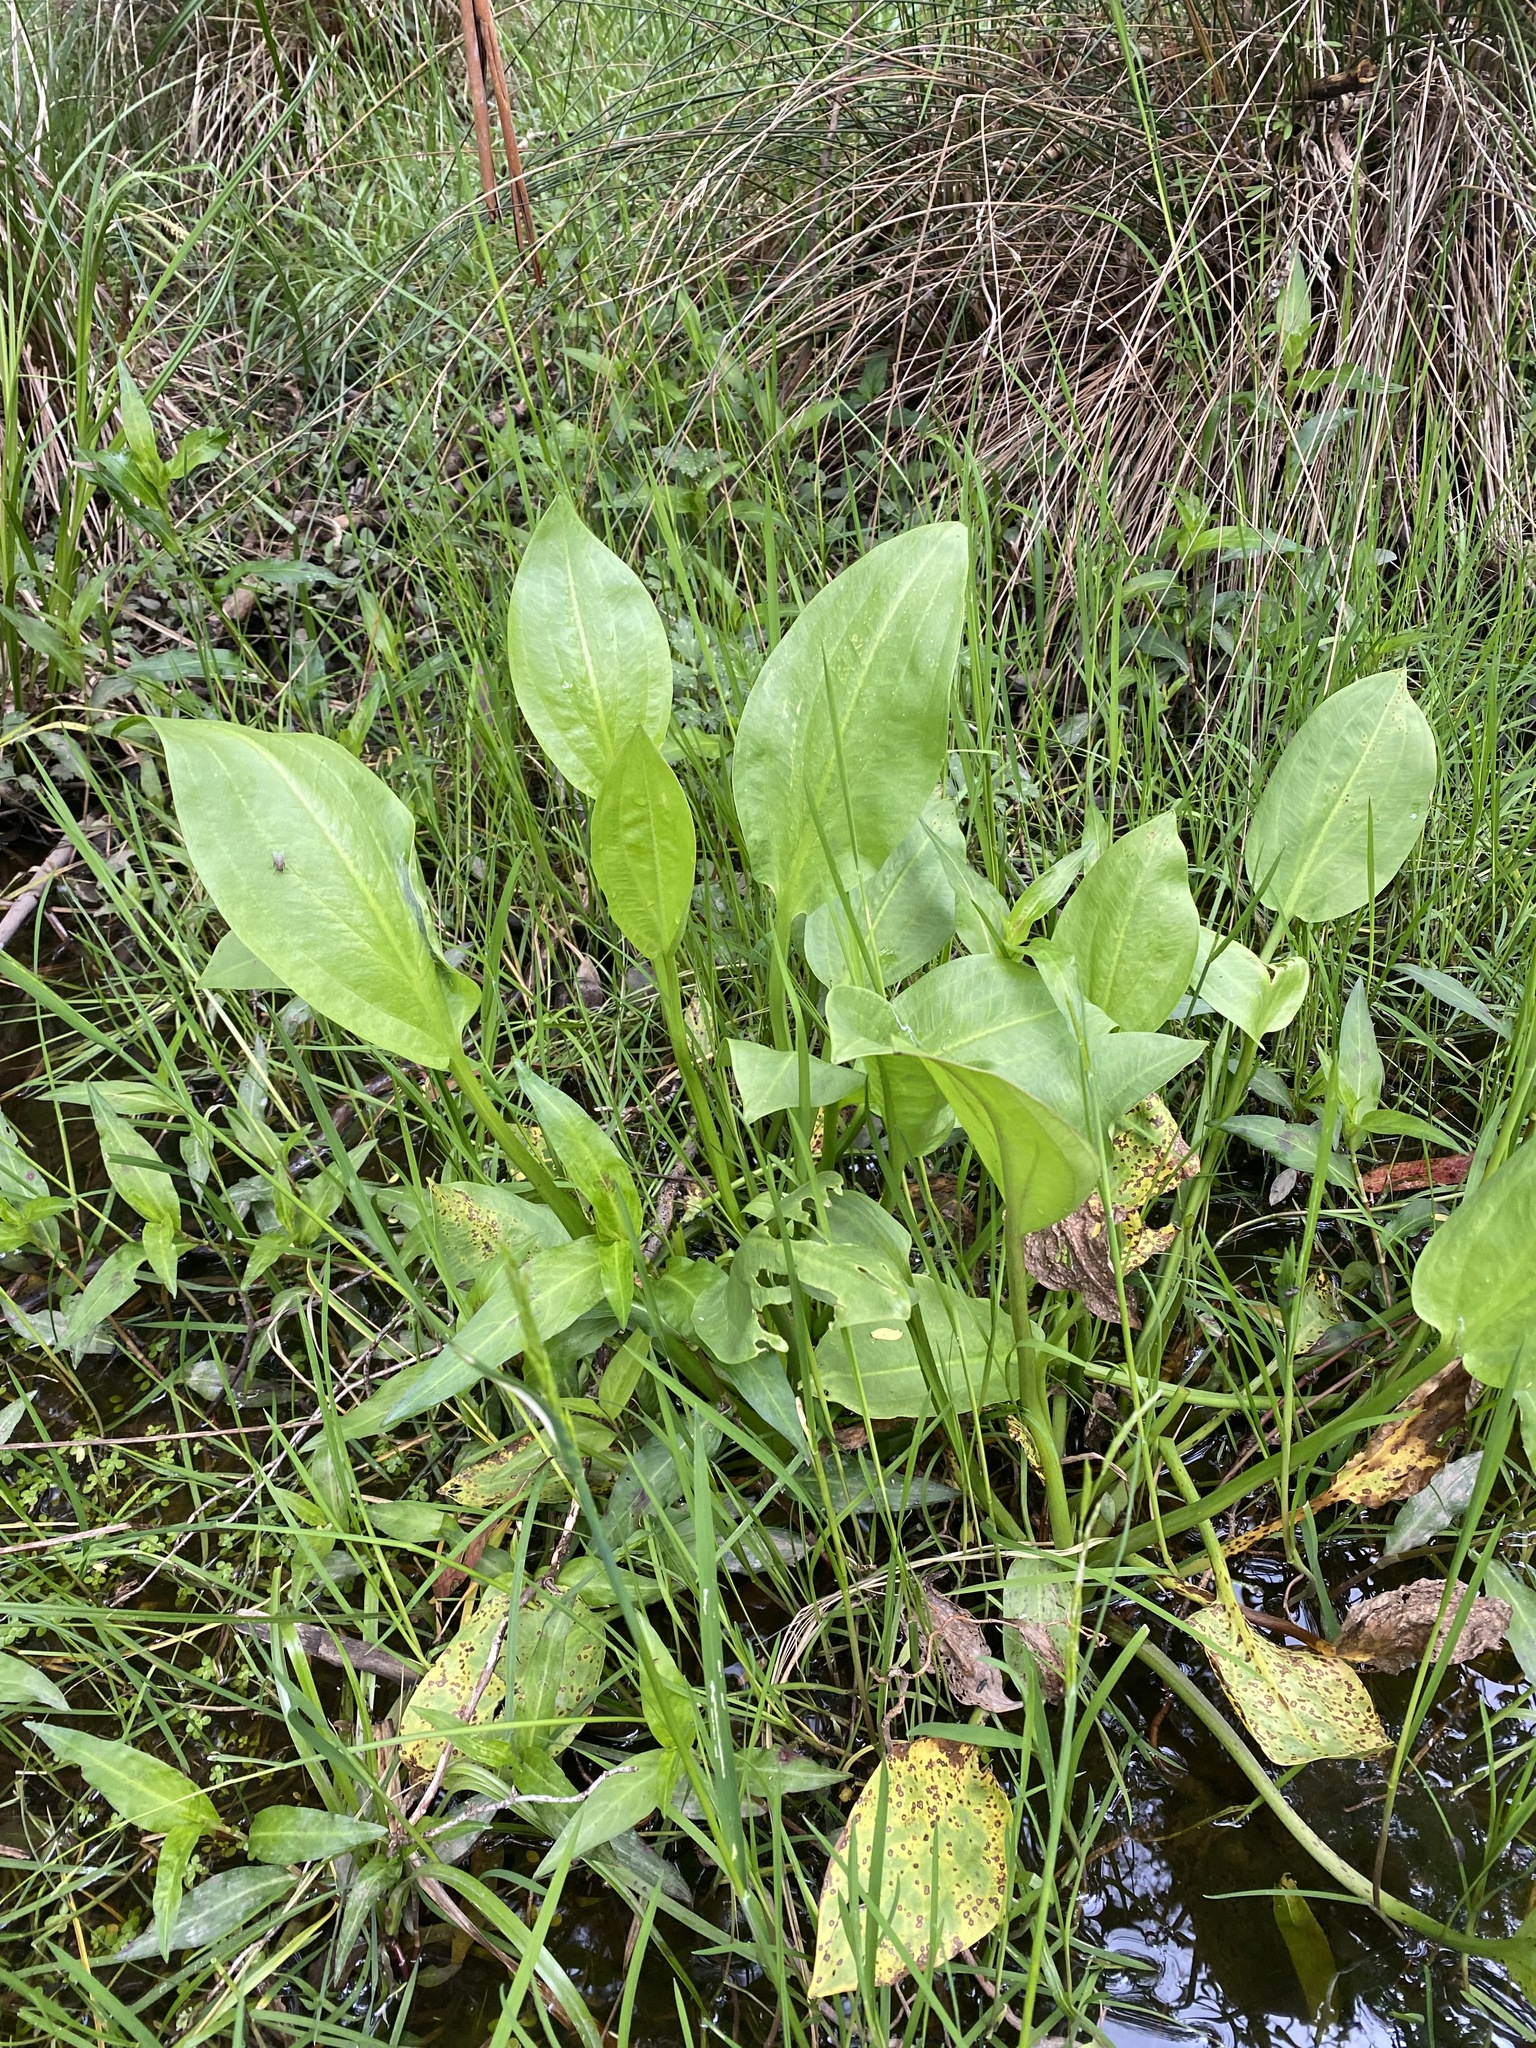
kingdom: Plantae
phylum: Tracheophyta
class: Liliopsida
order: Alismatales
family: Alismataceae
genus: Alisma
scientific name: Alisma plantago-aquatica
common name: Water-plantain
